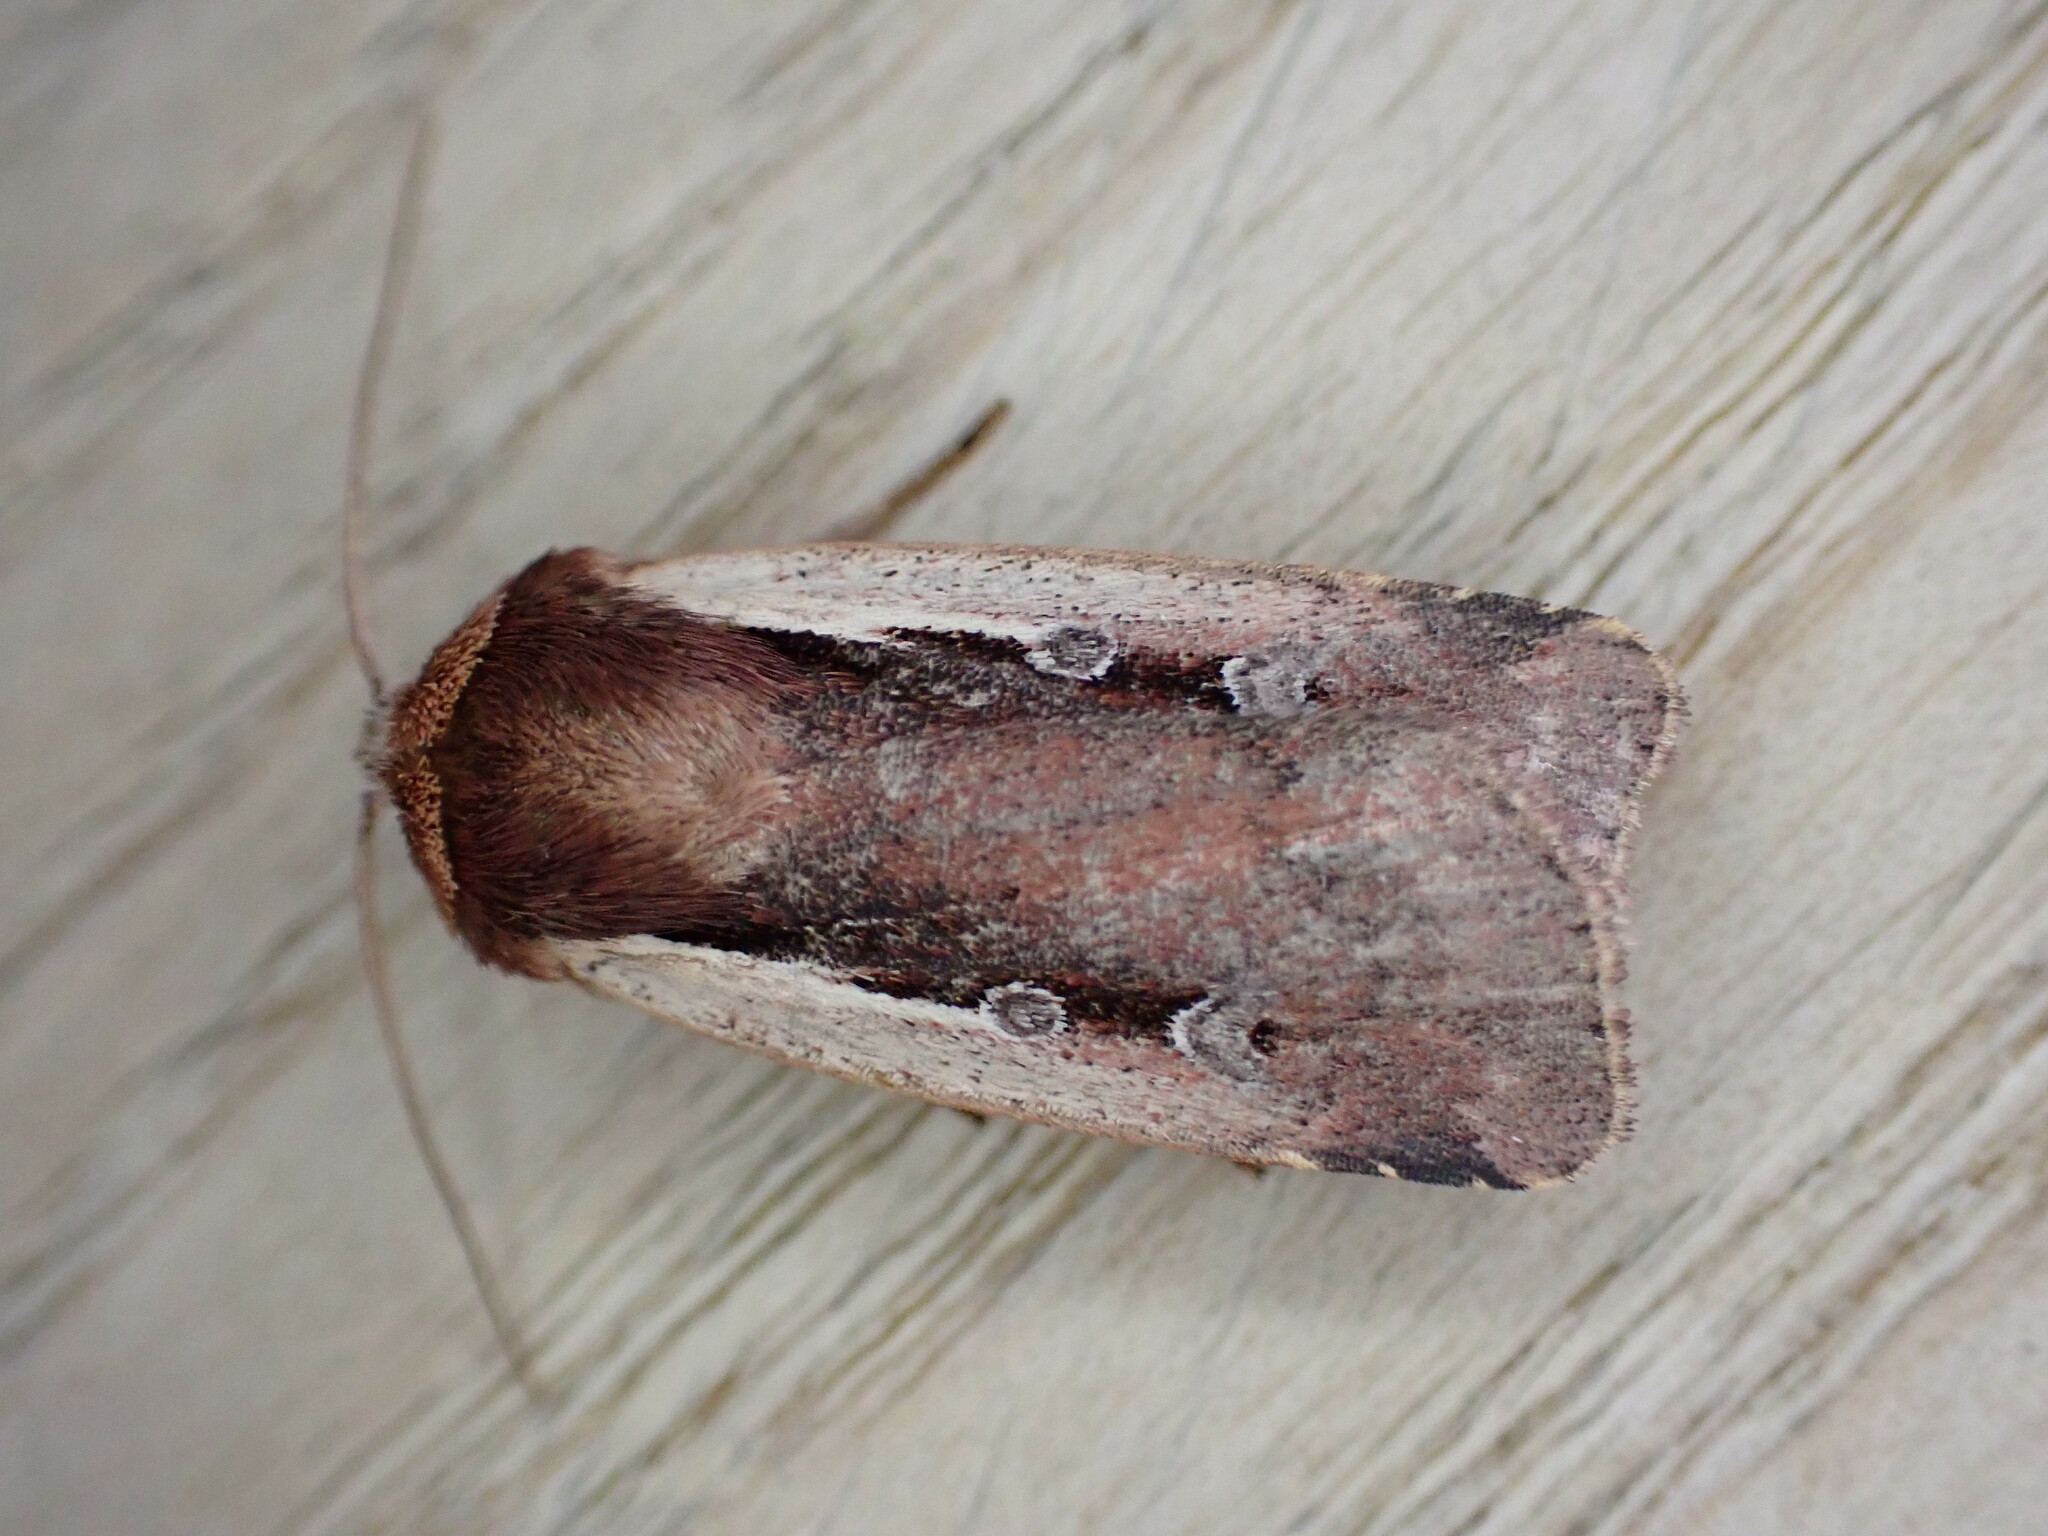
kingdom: Animalia
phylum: Arthropoda
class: Insecta
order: Lepidoptera
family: Noctuidae
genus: Ochropleura
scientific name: Ochropleura plecta
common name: Flame shoulder
